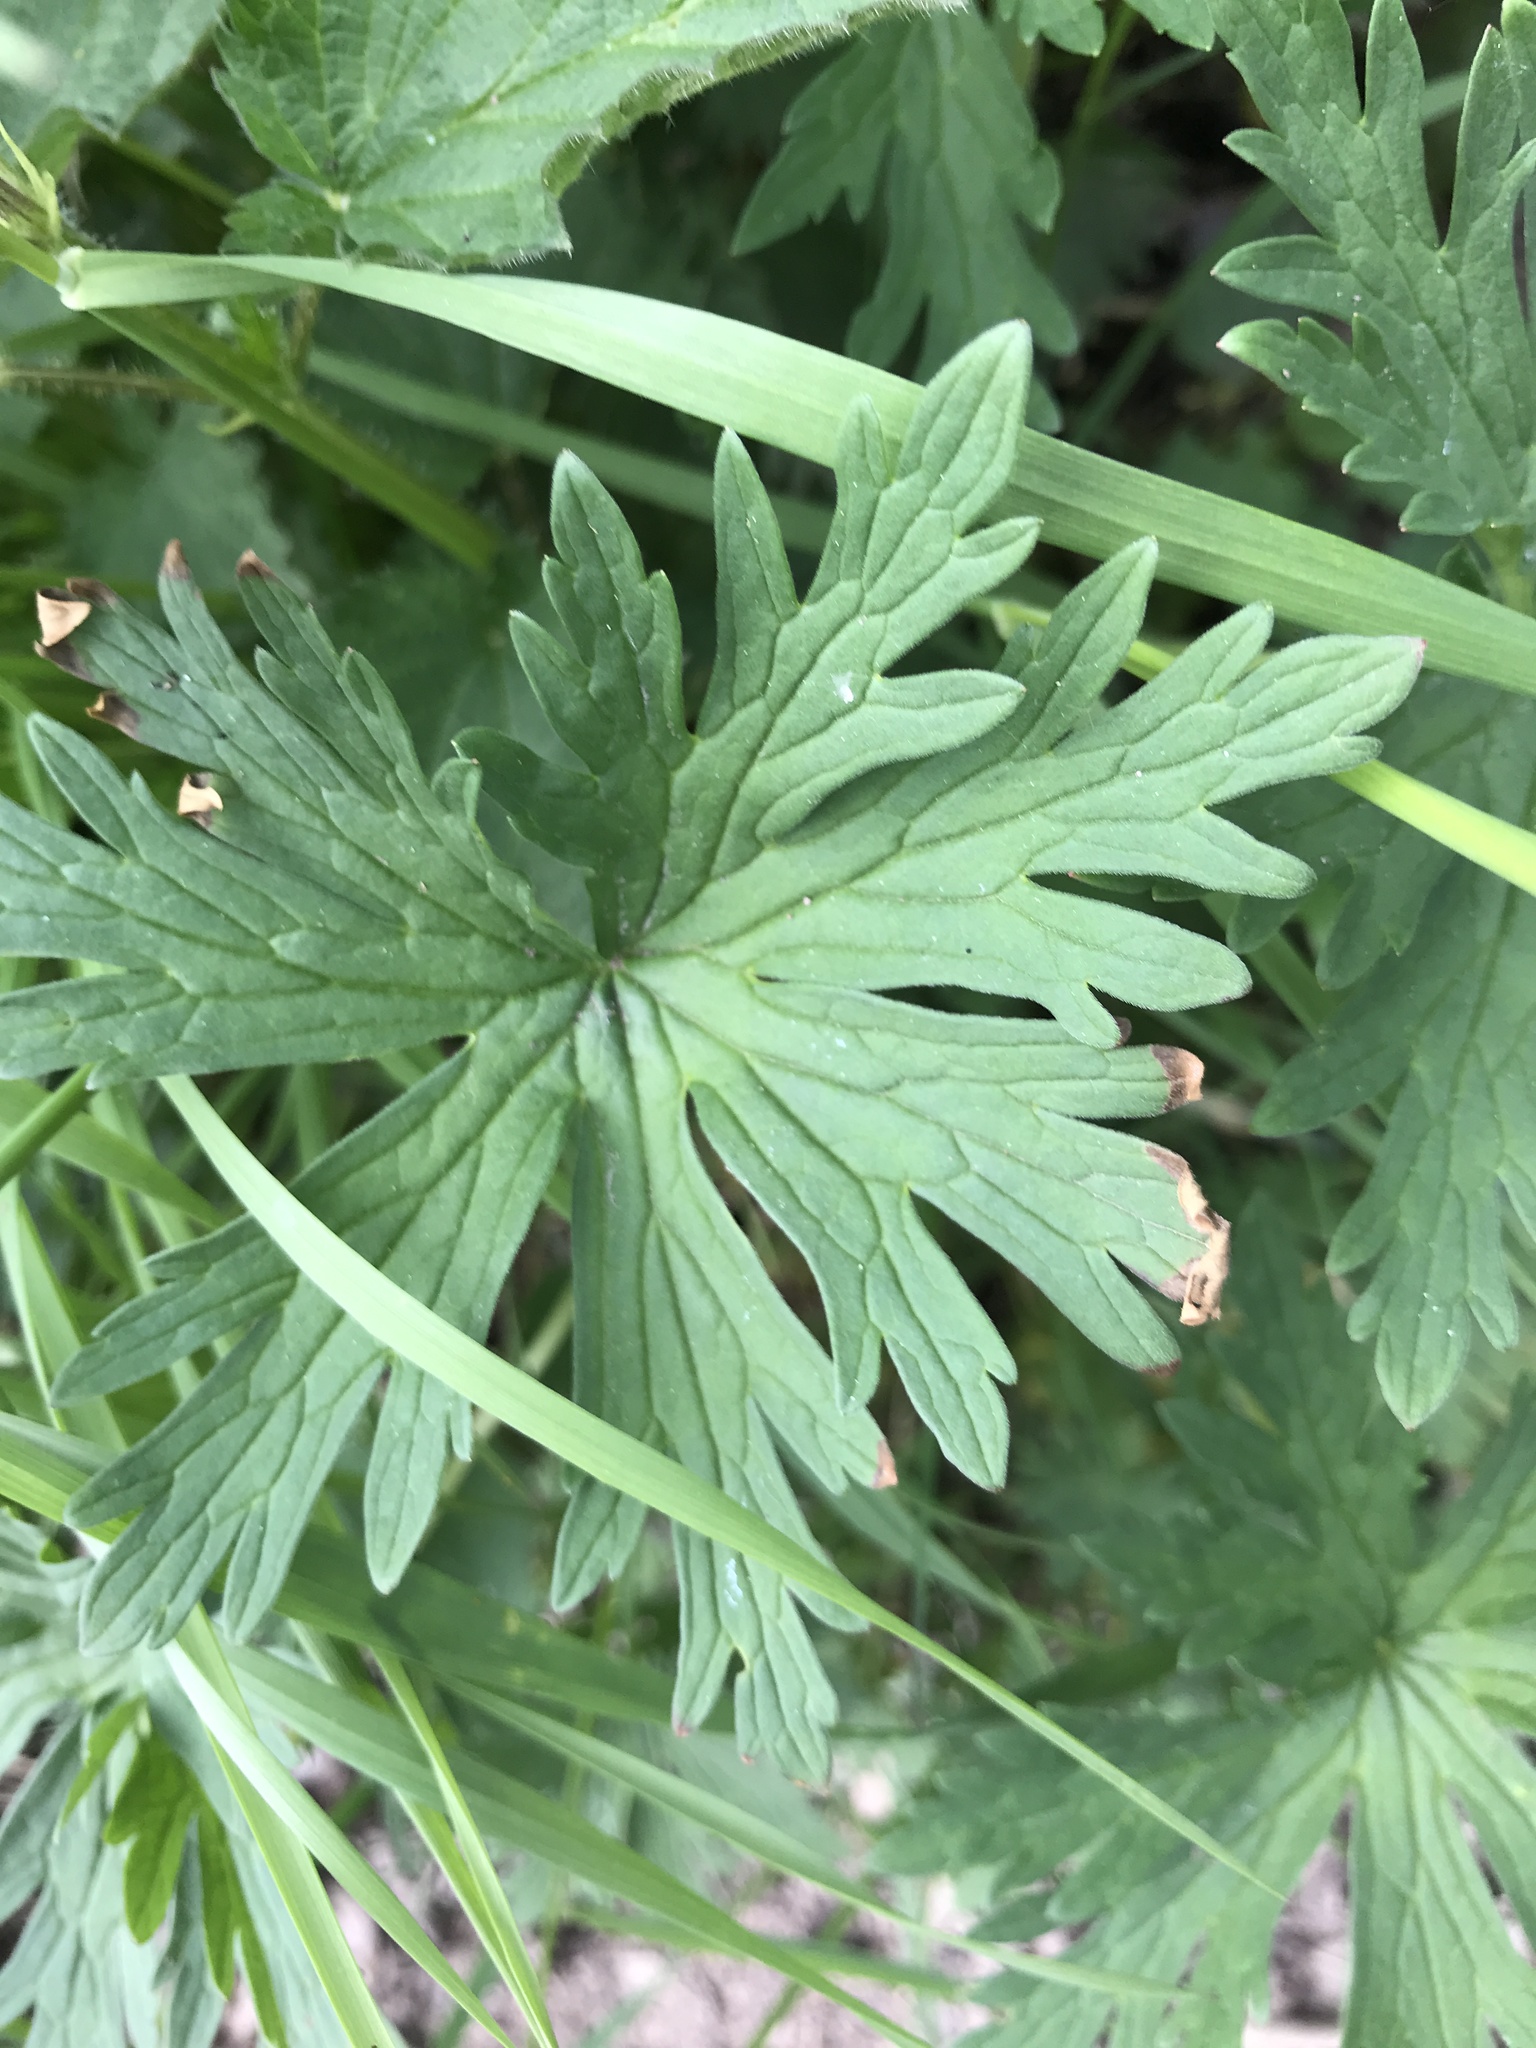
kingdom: Plantae
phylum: Tracheophyta
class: Magnoliopsida
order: Geraniales
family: Geraniaceae
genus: Geranium
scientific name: Geranium pratense
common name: Meadow crane's-bill
